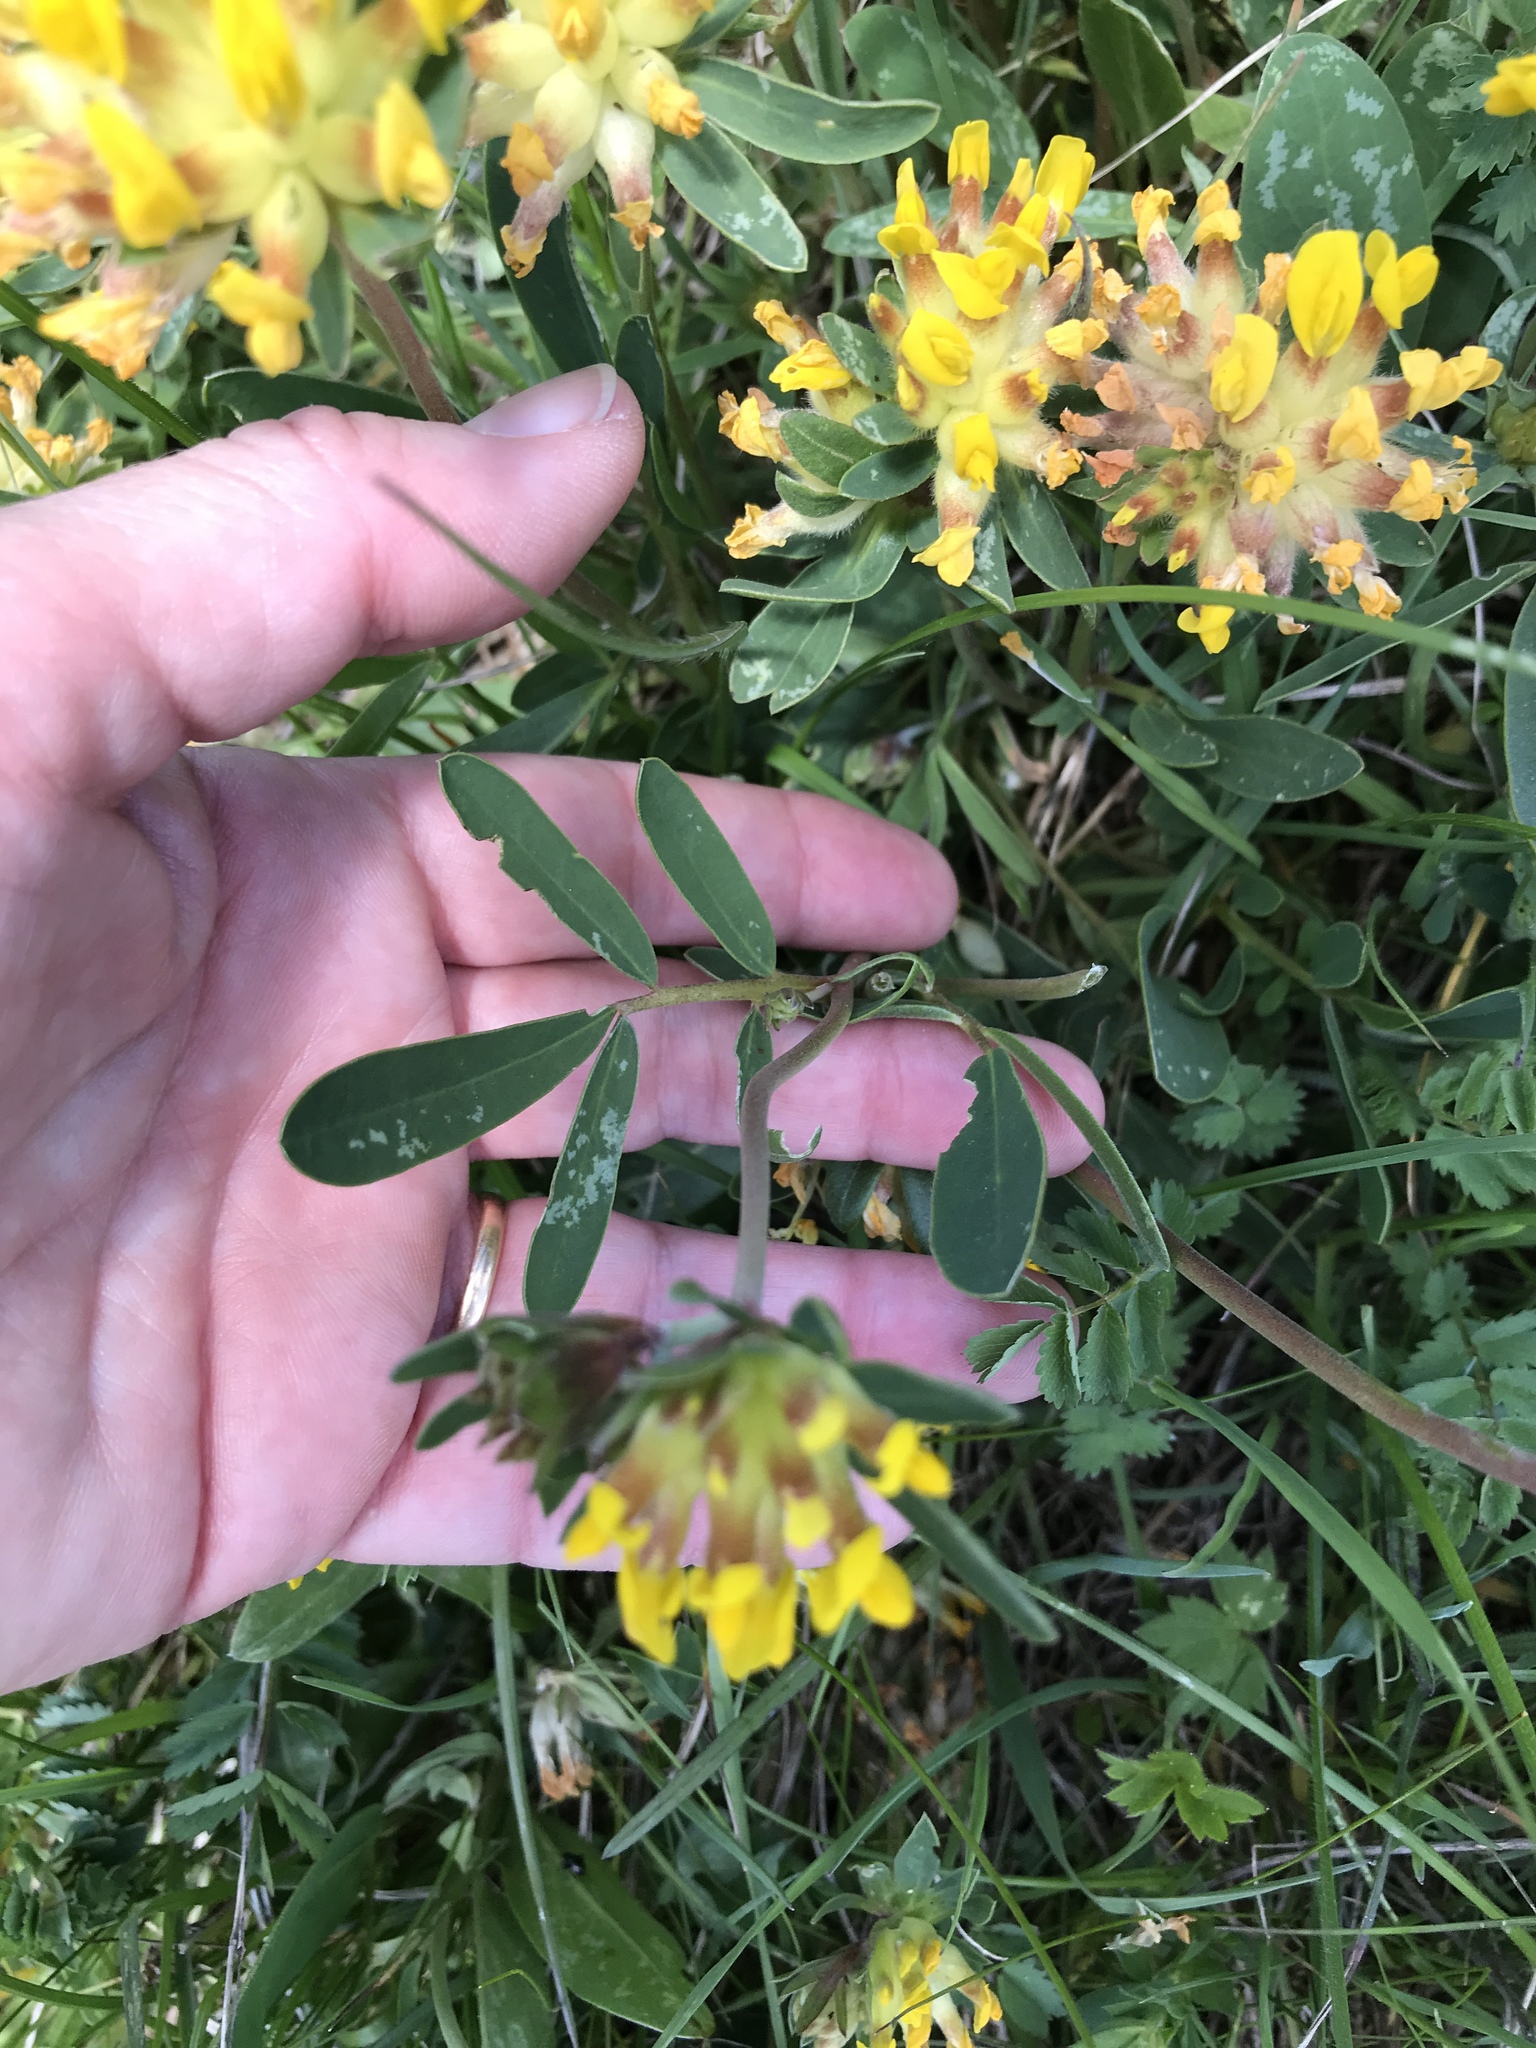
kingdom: Plantae
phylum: Tracheophyta
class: Magnoliopsida
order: Fabales
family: Fabaceae
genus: Anthyllis
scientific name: Anthyllis vulneraria
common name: Kidney vetch
